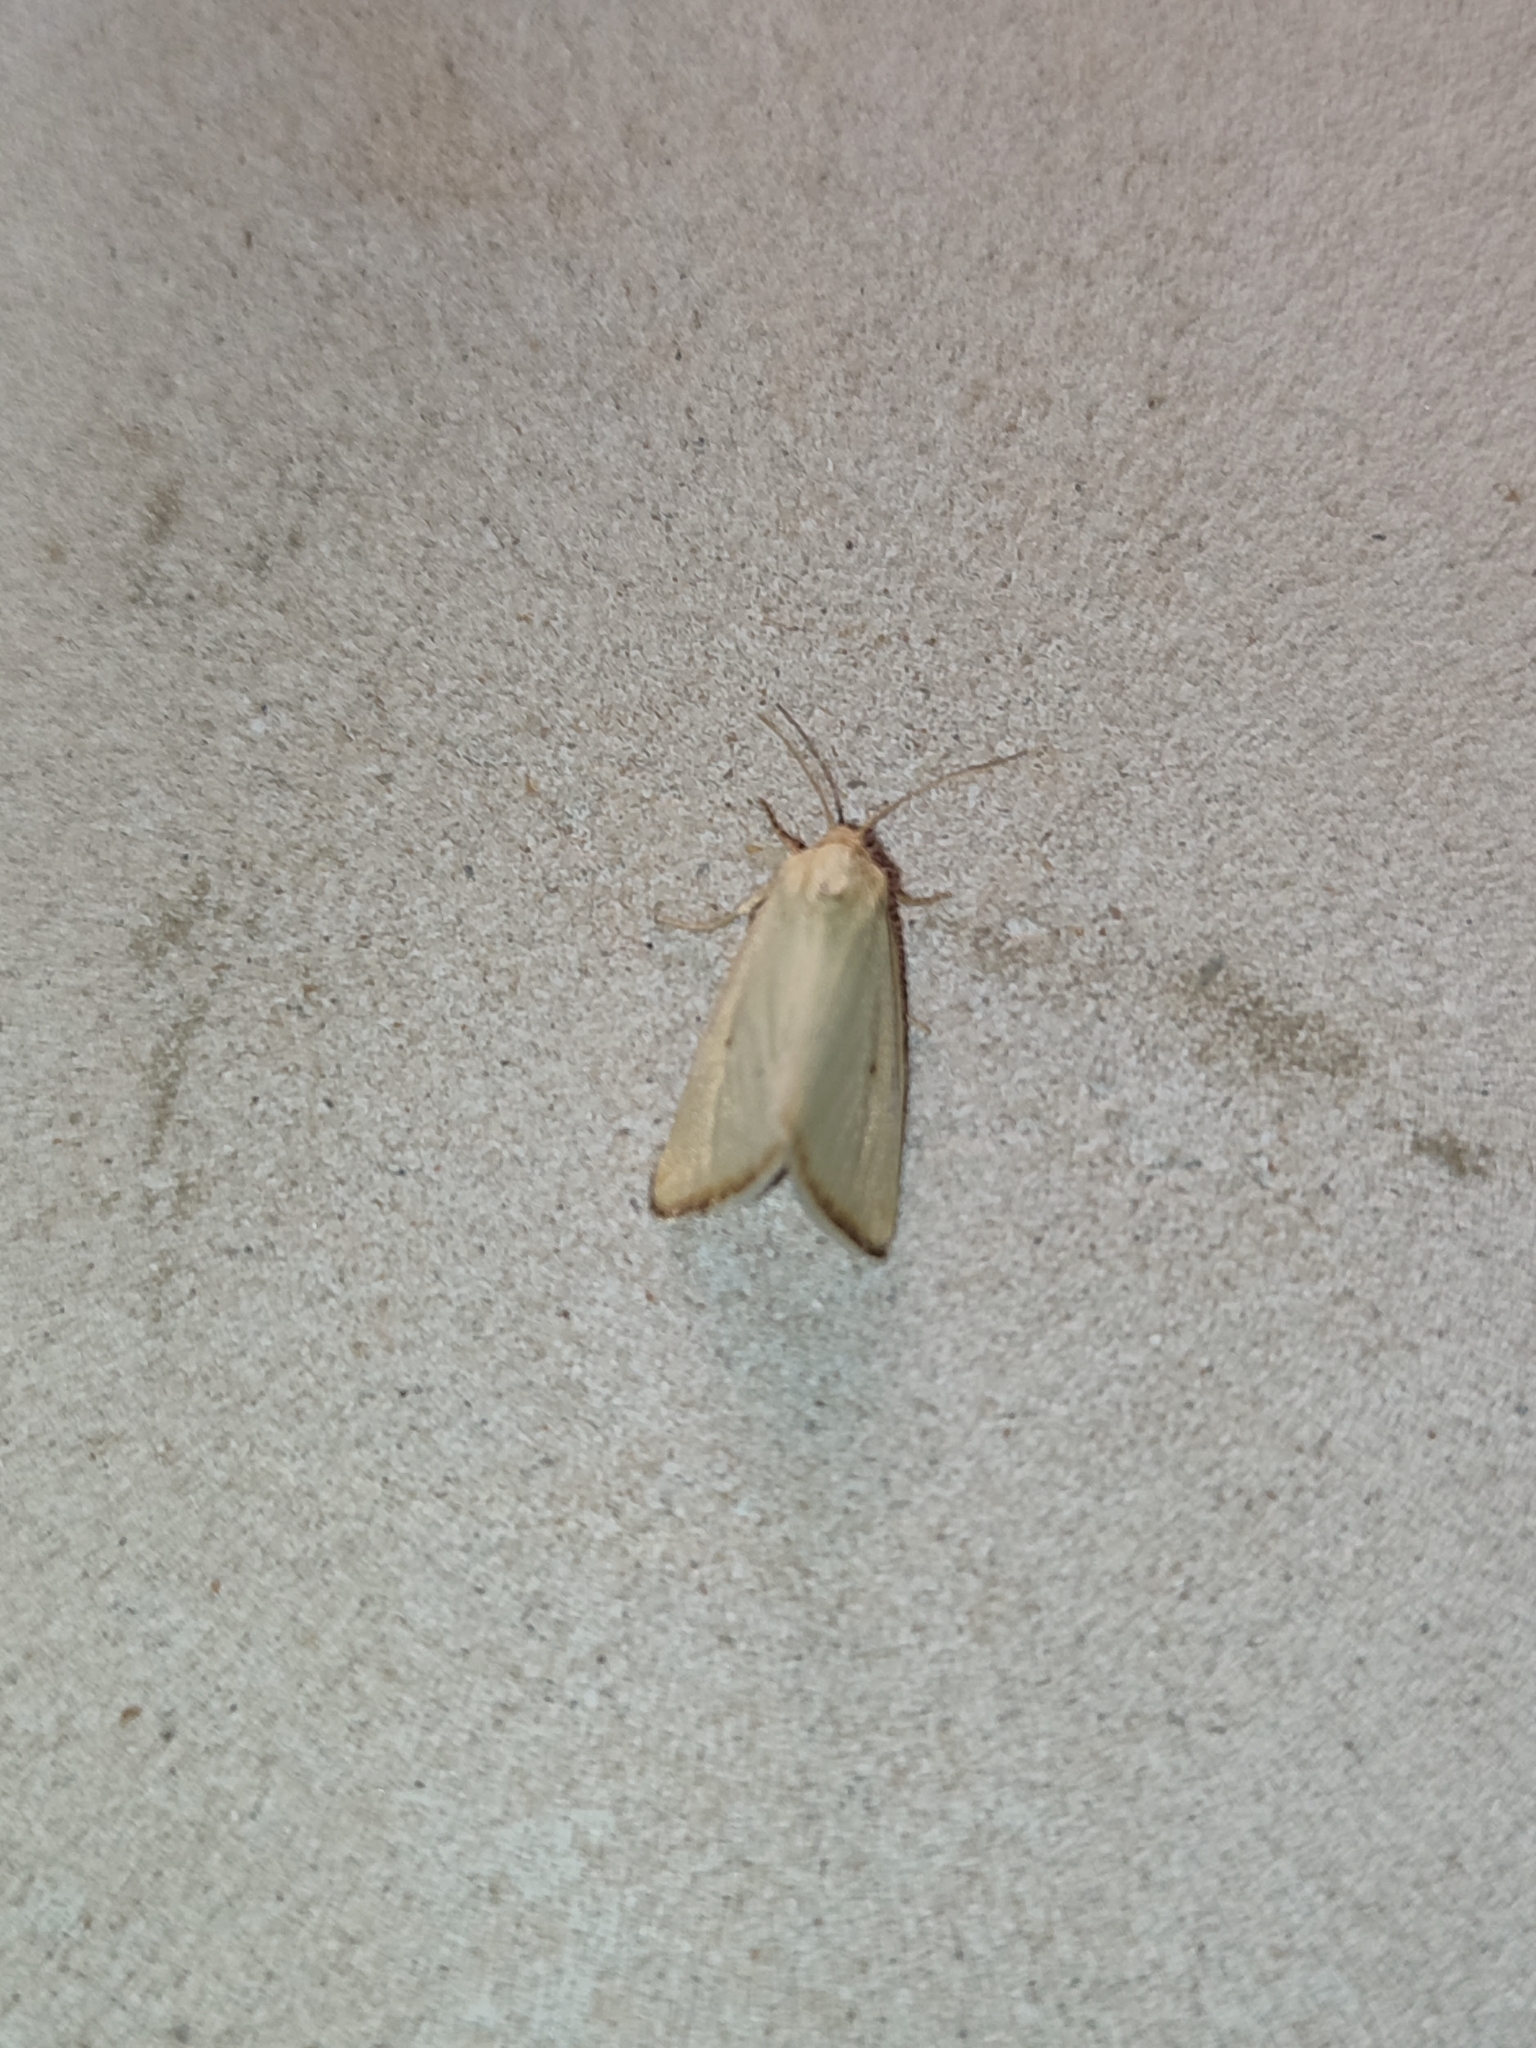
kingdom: Animalia
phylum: Arthropoda
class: Insecta
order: Lepidoptera
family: Noctuidae
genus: Aegle
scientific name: Aegle kaekeritziana
